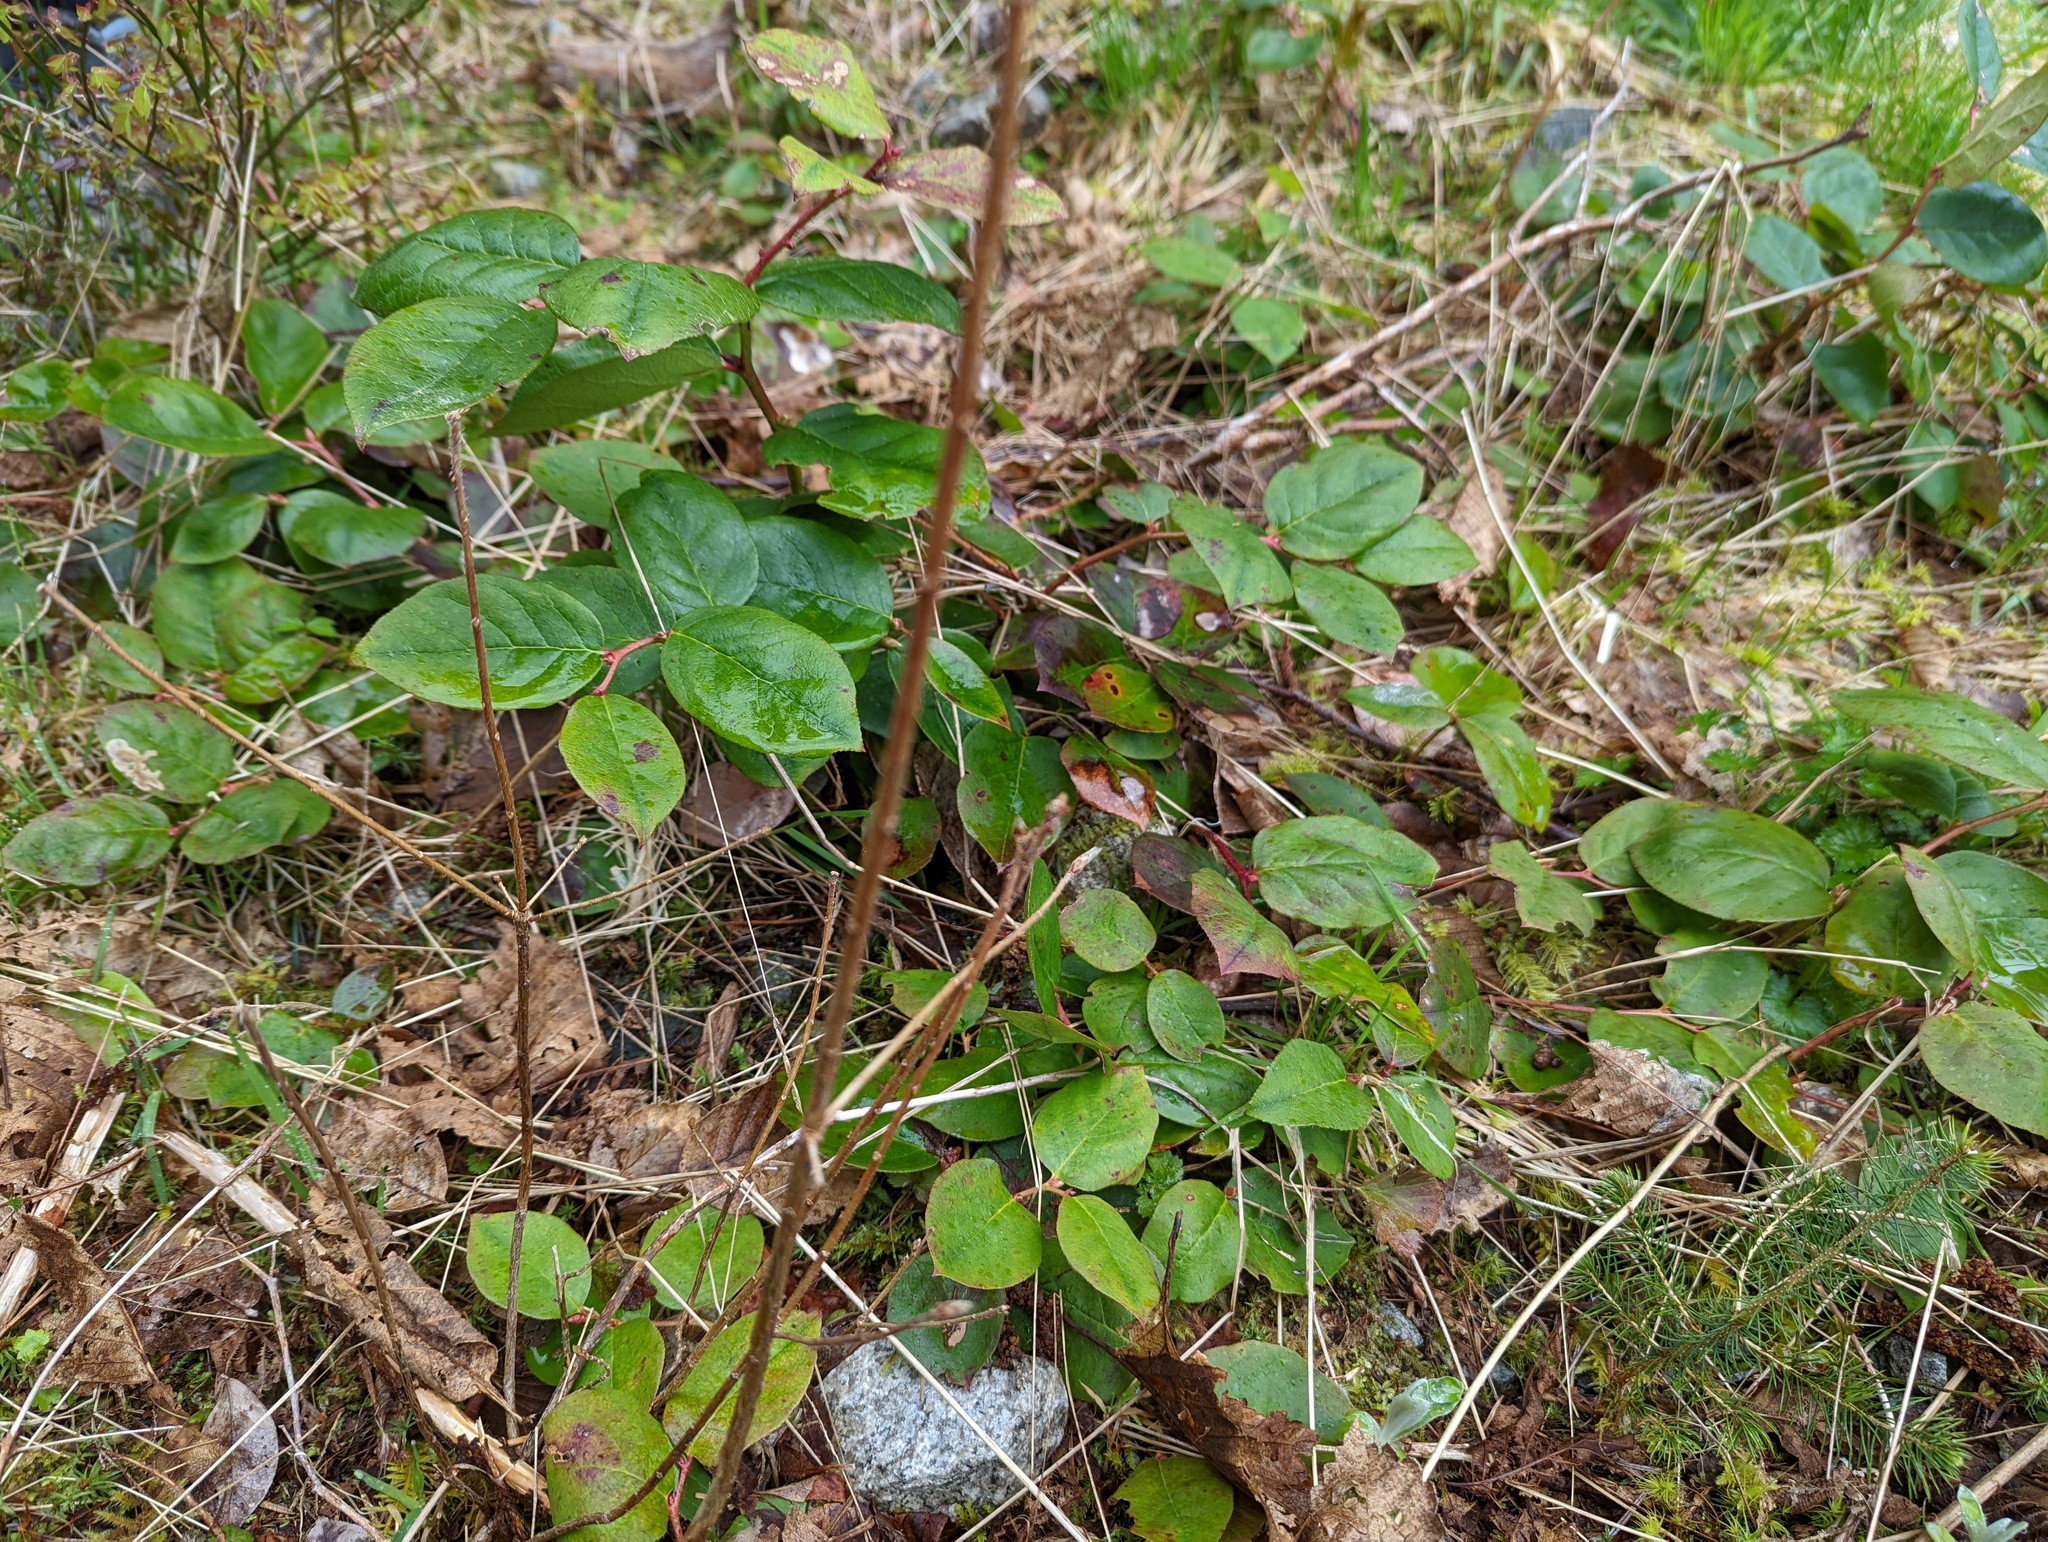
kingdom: Plantae
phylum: Tracheophyta
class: Magnoliopsida
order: Ericales
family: Ericaceae
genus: Gaultheria
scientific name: Gaultheria shallon
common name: Shallon
